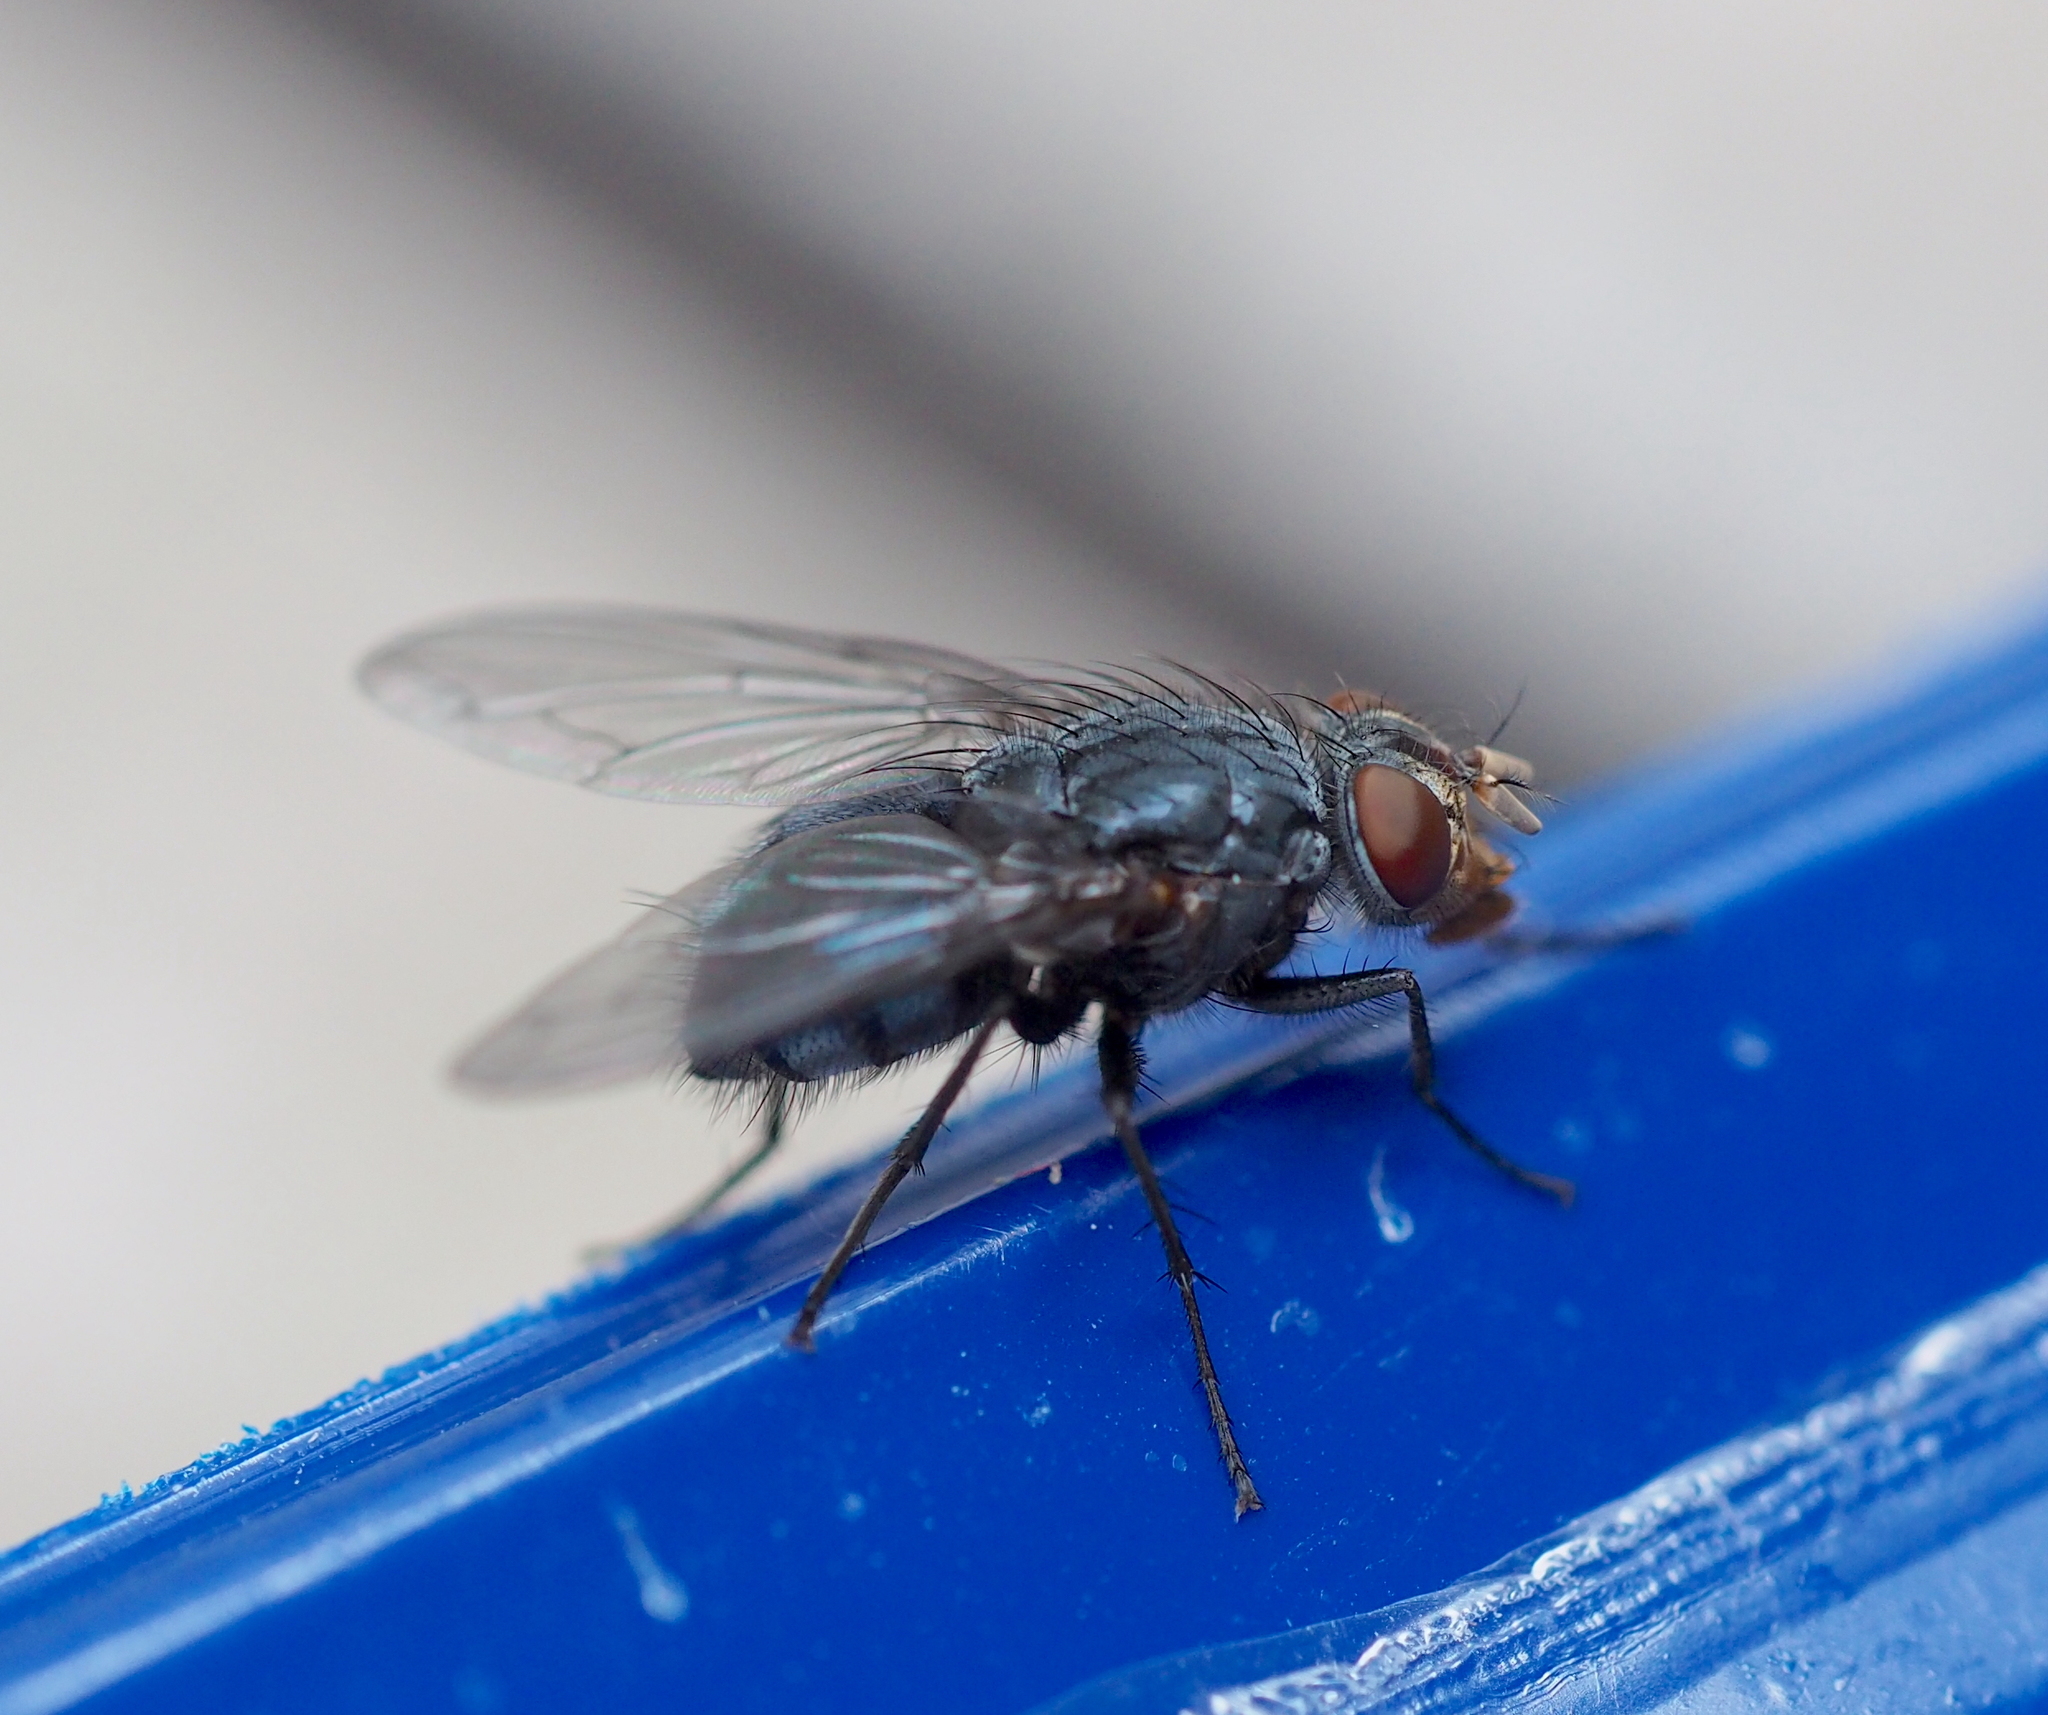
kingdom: Animalia
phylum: Arthropoda
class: Insecta
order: Diptera
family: Calliphoridae
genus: Calliphora
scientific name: Calliphora vicina
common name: Common blow flie
